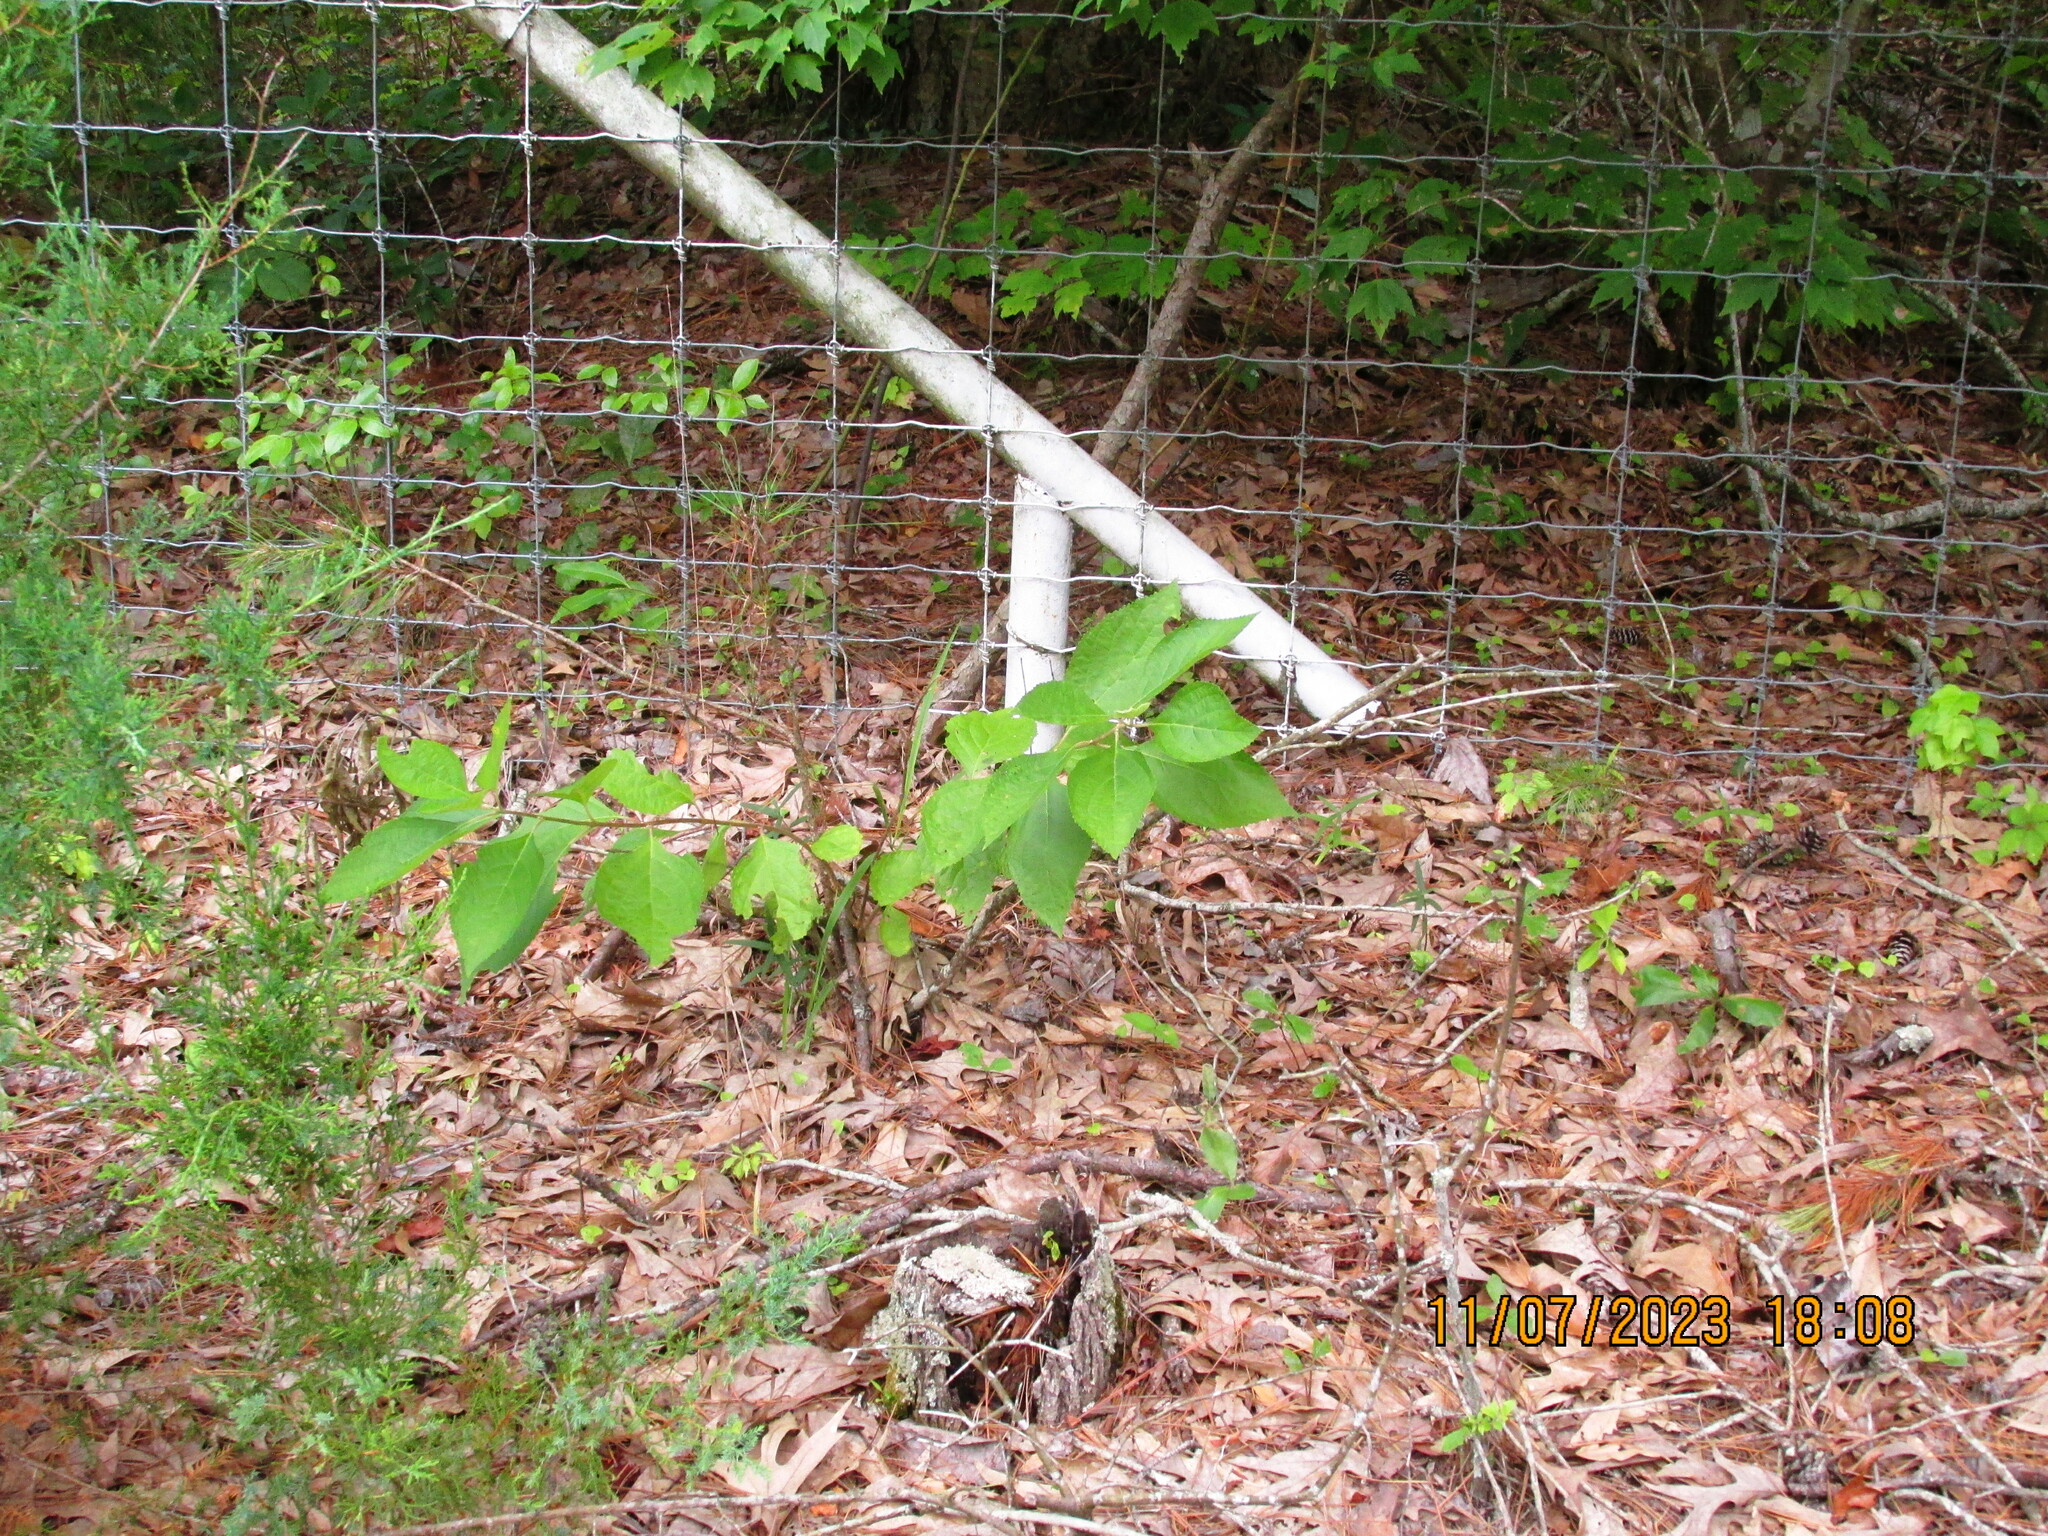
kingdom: Plantae
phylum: Tracheophyta
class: Magnoliopsida
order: Lamiales
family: Lamiaceae
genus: Callicarpa
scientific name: Callicarpa americana
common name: American beautyberry
